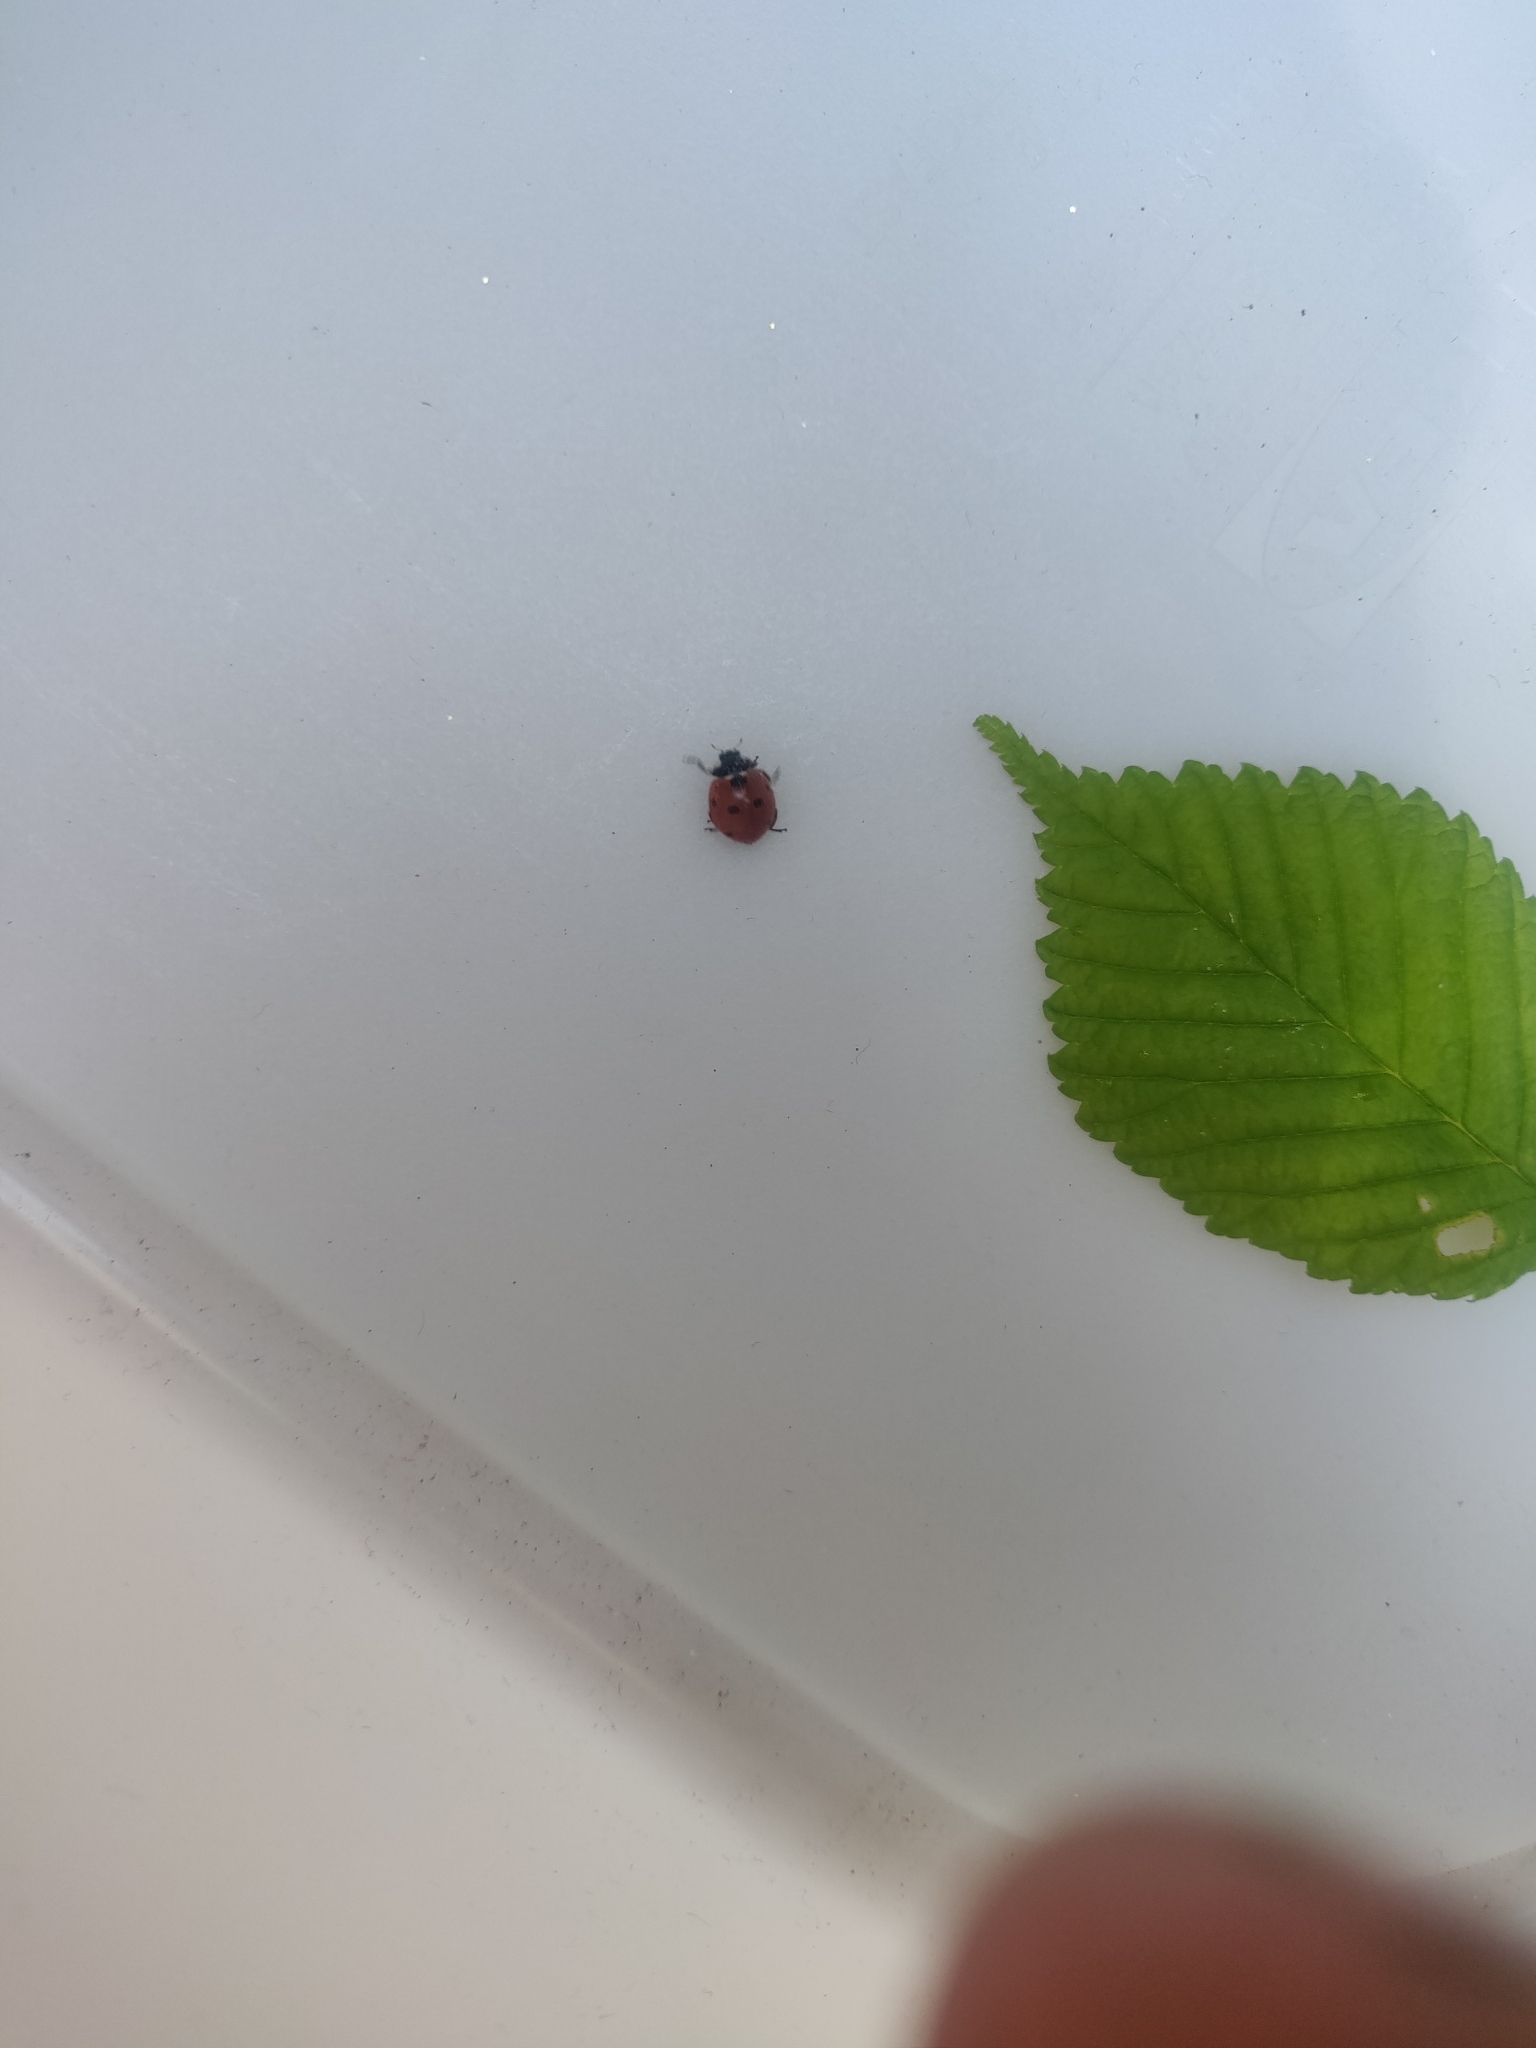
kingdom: Animalia
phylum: Arthropoda
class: Insecta
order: Coleoptera
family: Coccinellidae
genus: Coccinella
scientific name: Coccinella septempunctata
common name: Sevenspotted lady beetle
